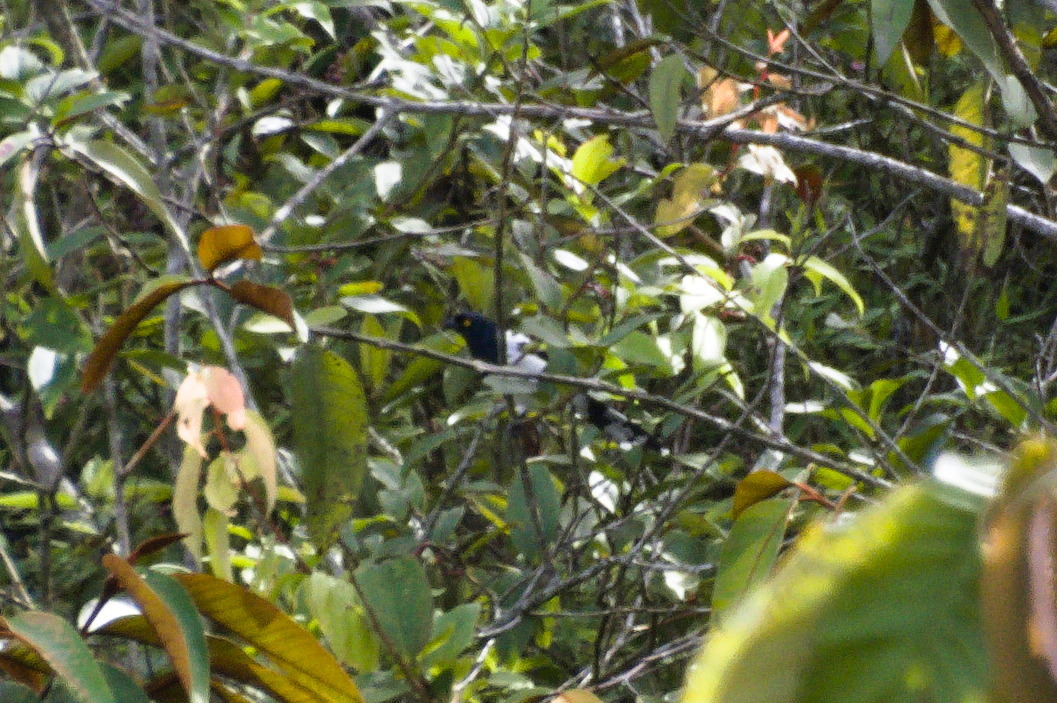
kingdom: Animalia
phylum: Chordata
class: Aves
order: Passeriformes
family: Thraupidae
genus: Cissopis
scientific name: Cissopis leverianus
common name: Magpie tanager
